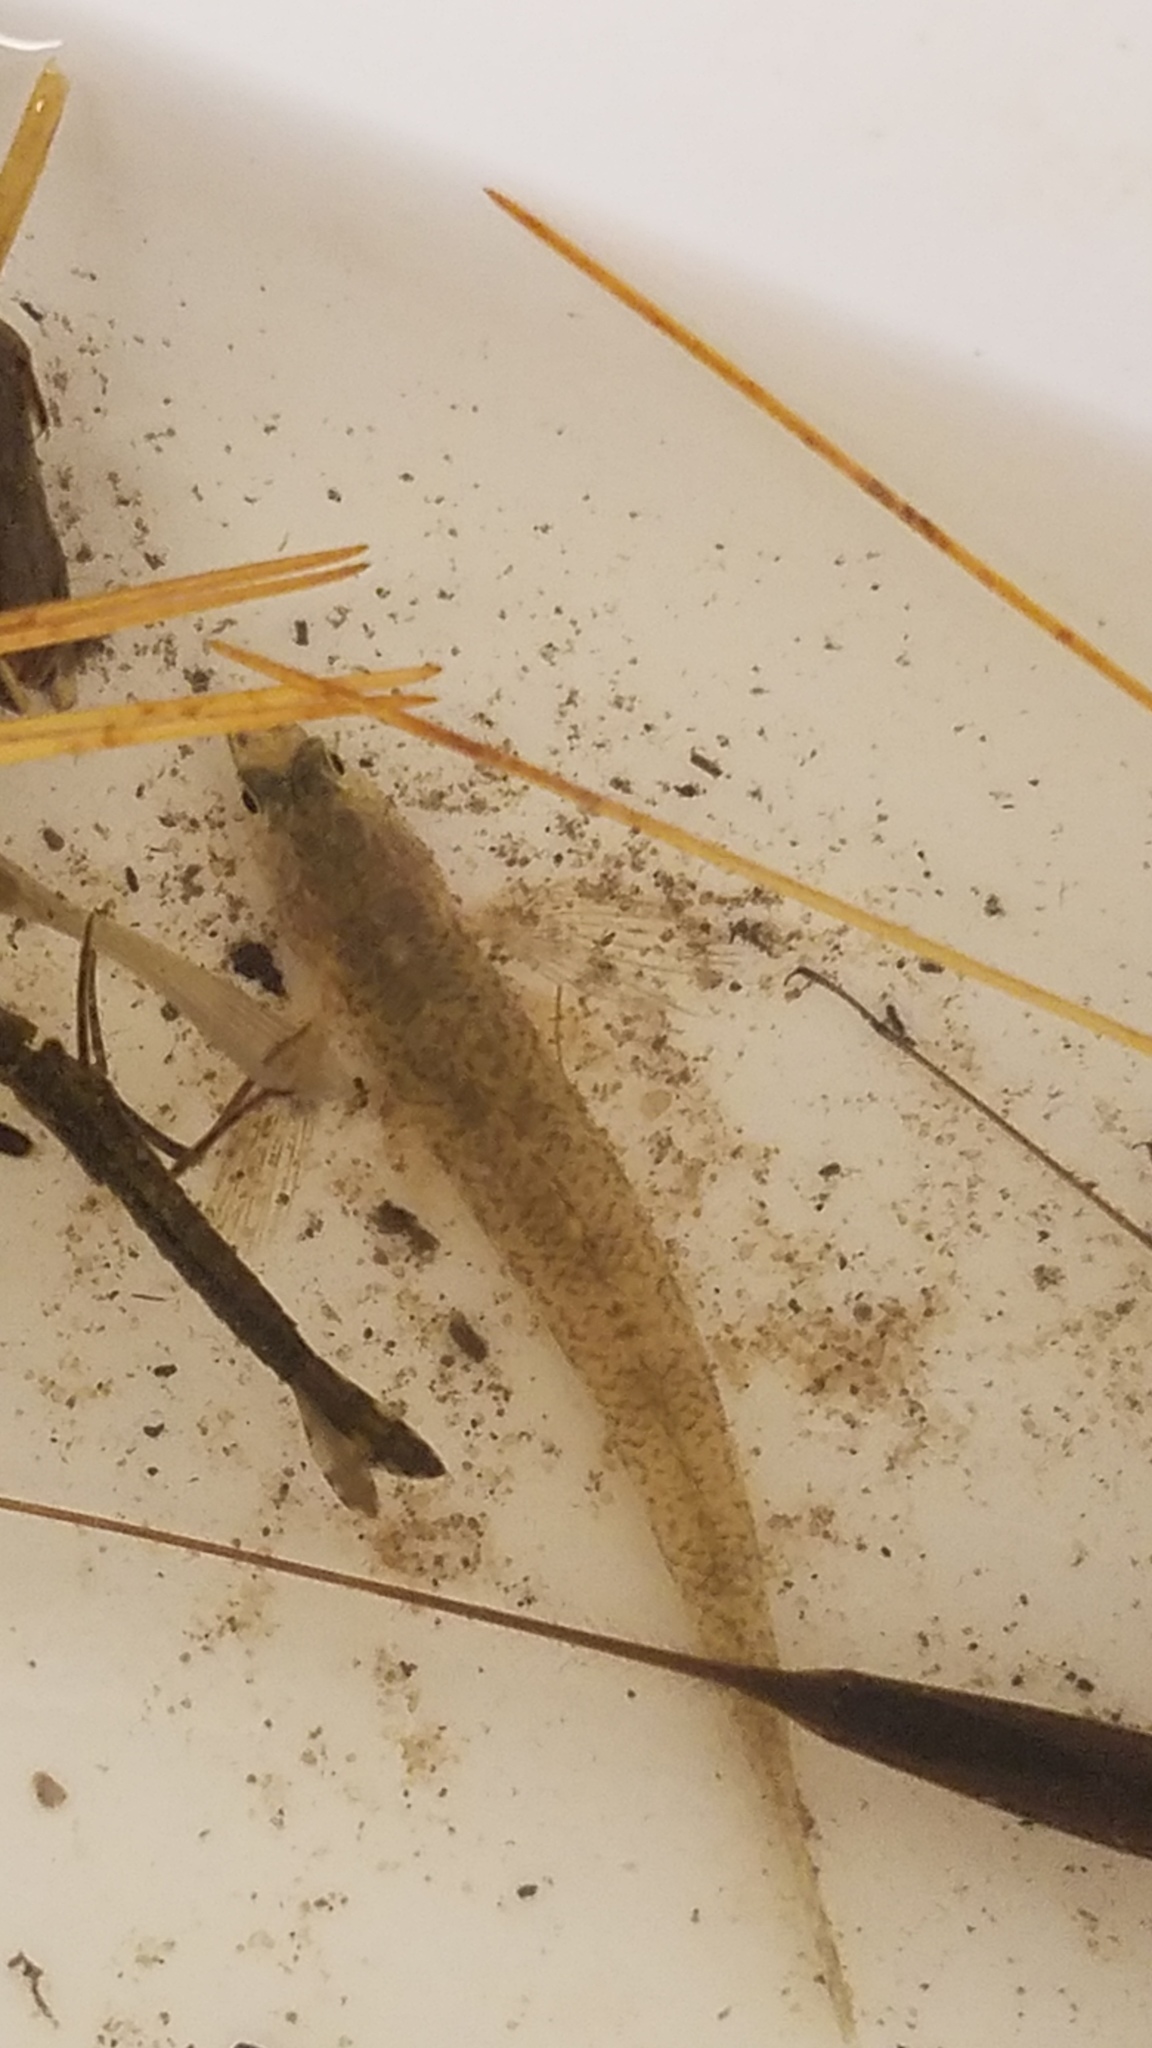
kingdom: Animalia
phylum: Chordata
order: Perciformes
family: Percidae
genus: Etheostoma
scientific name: Etheostoma nigrum
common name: Johnny darter
